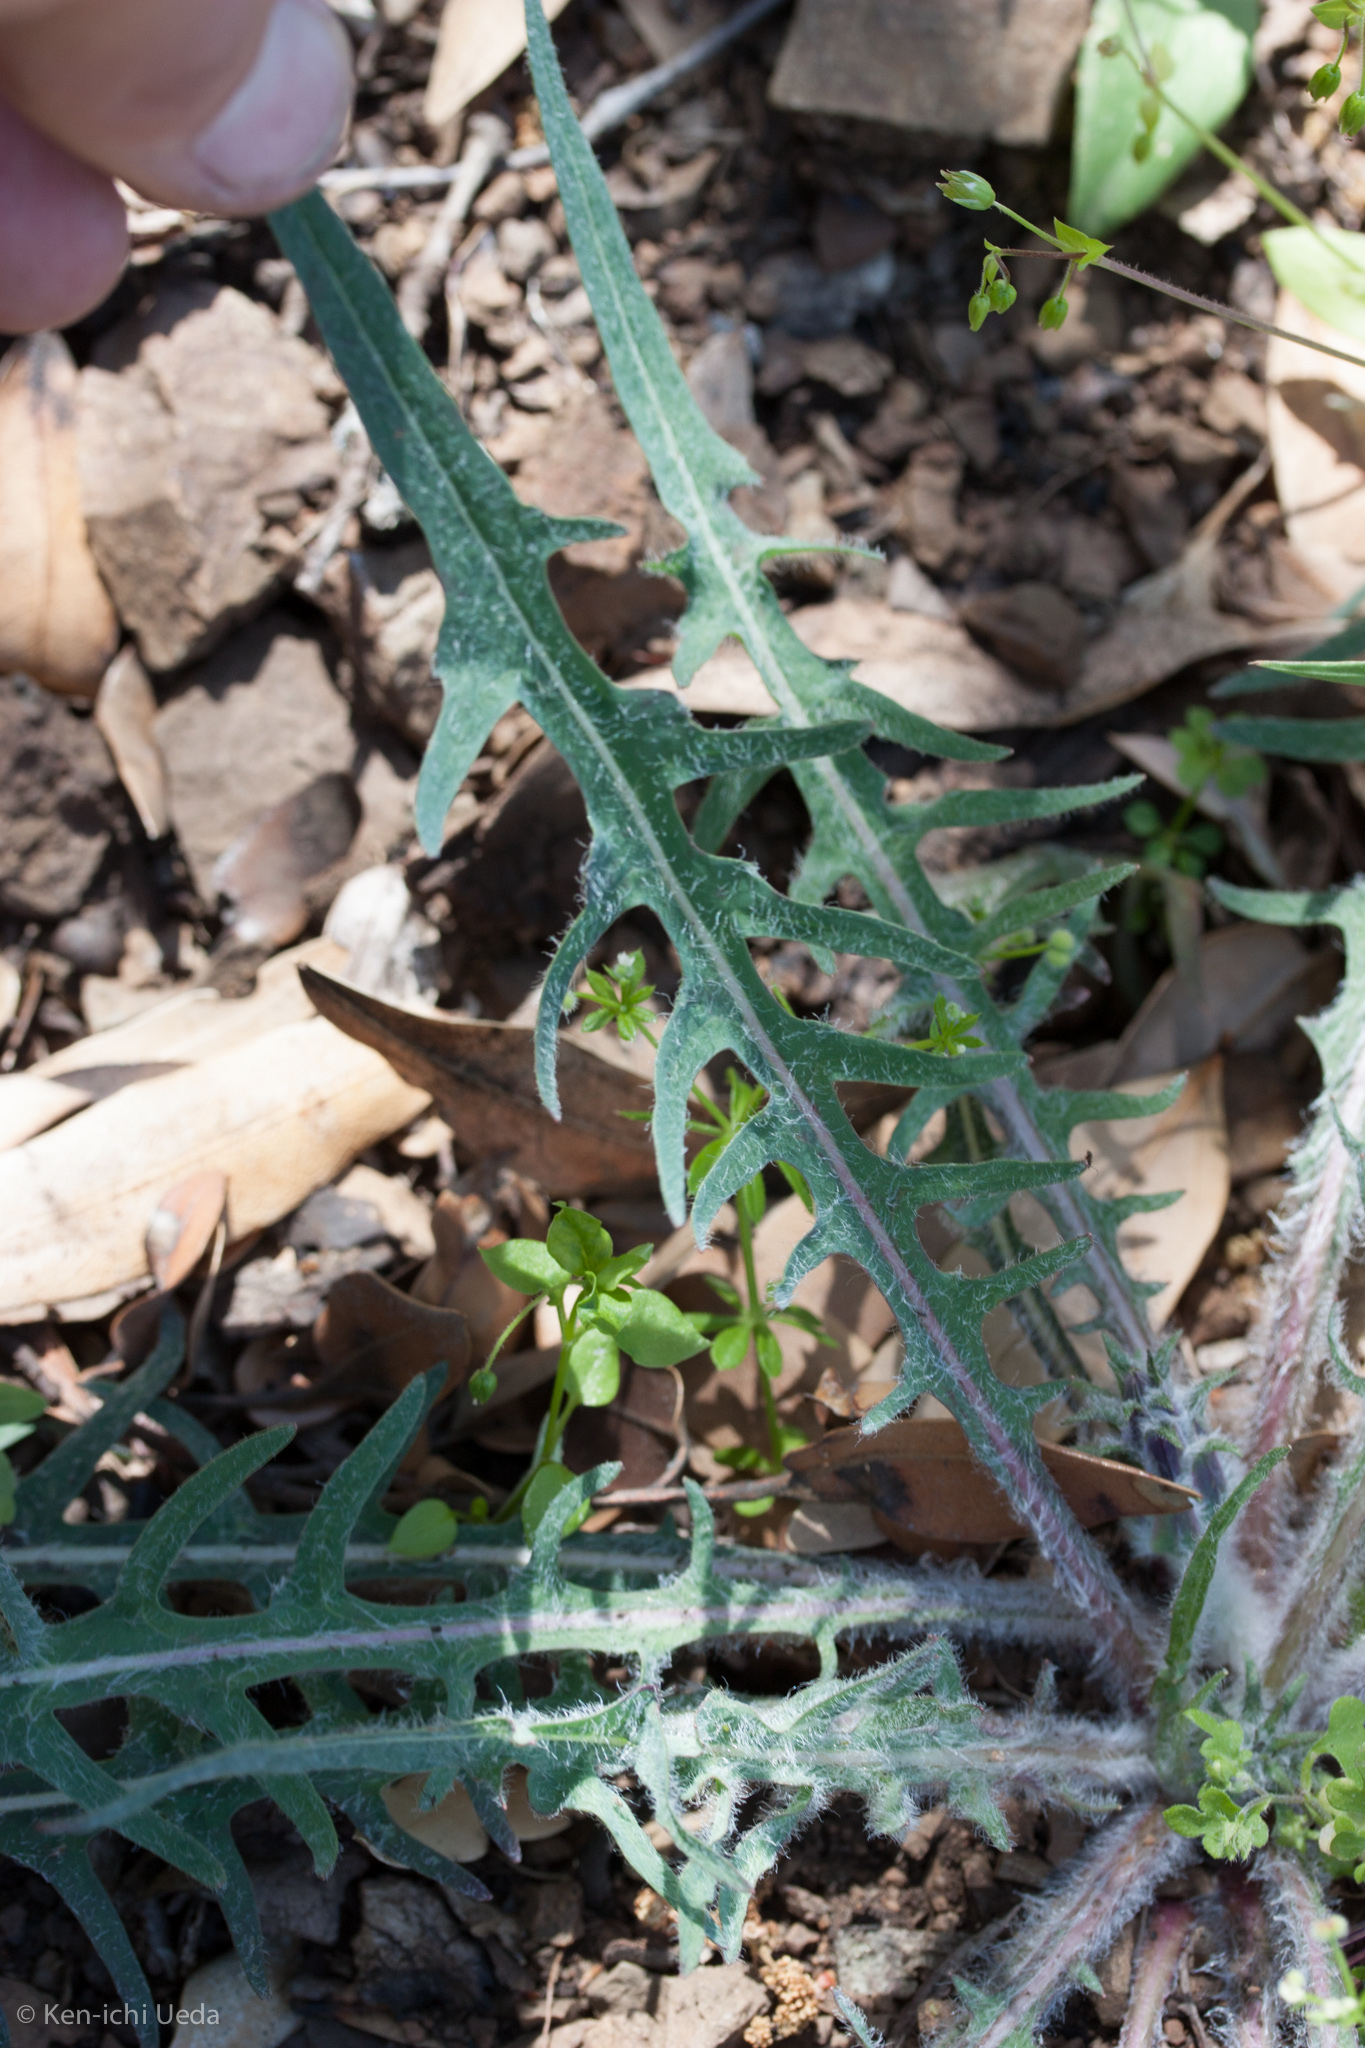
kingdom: Plantae
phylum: Tracheophyta
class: Magnoliopsida
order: Asterales
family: Asteraceae
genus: Agoseris
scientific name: Agoseris retrorsa
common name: Spearleaf agoseris
